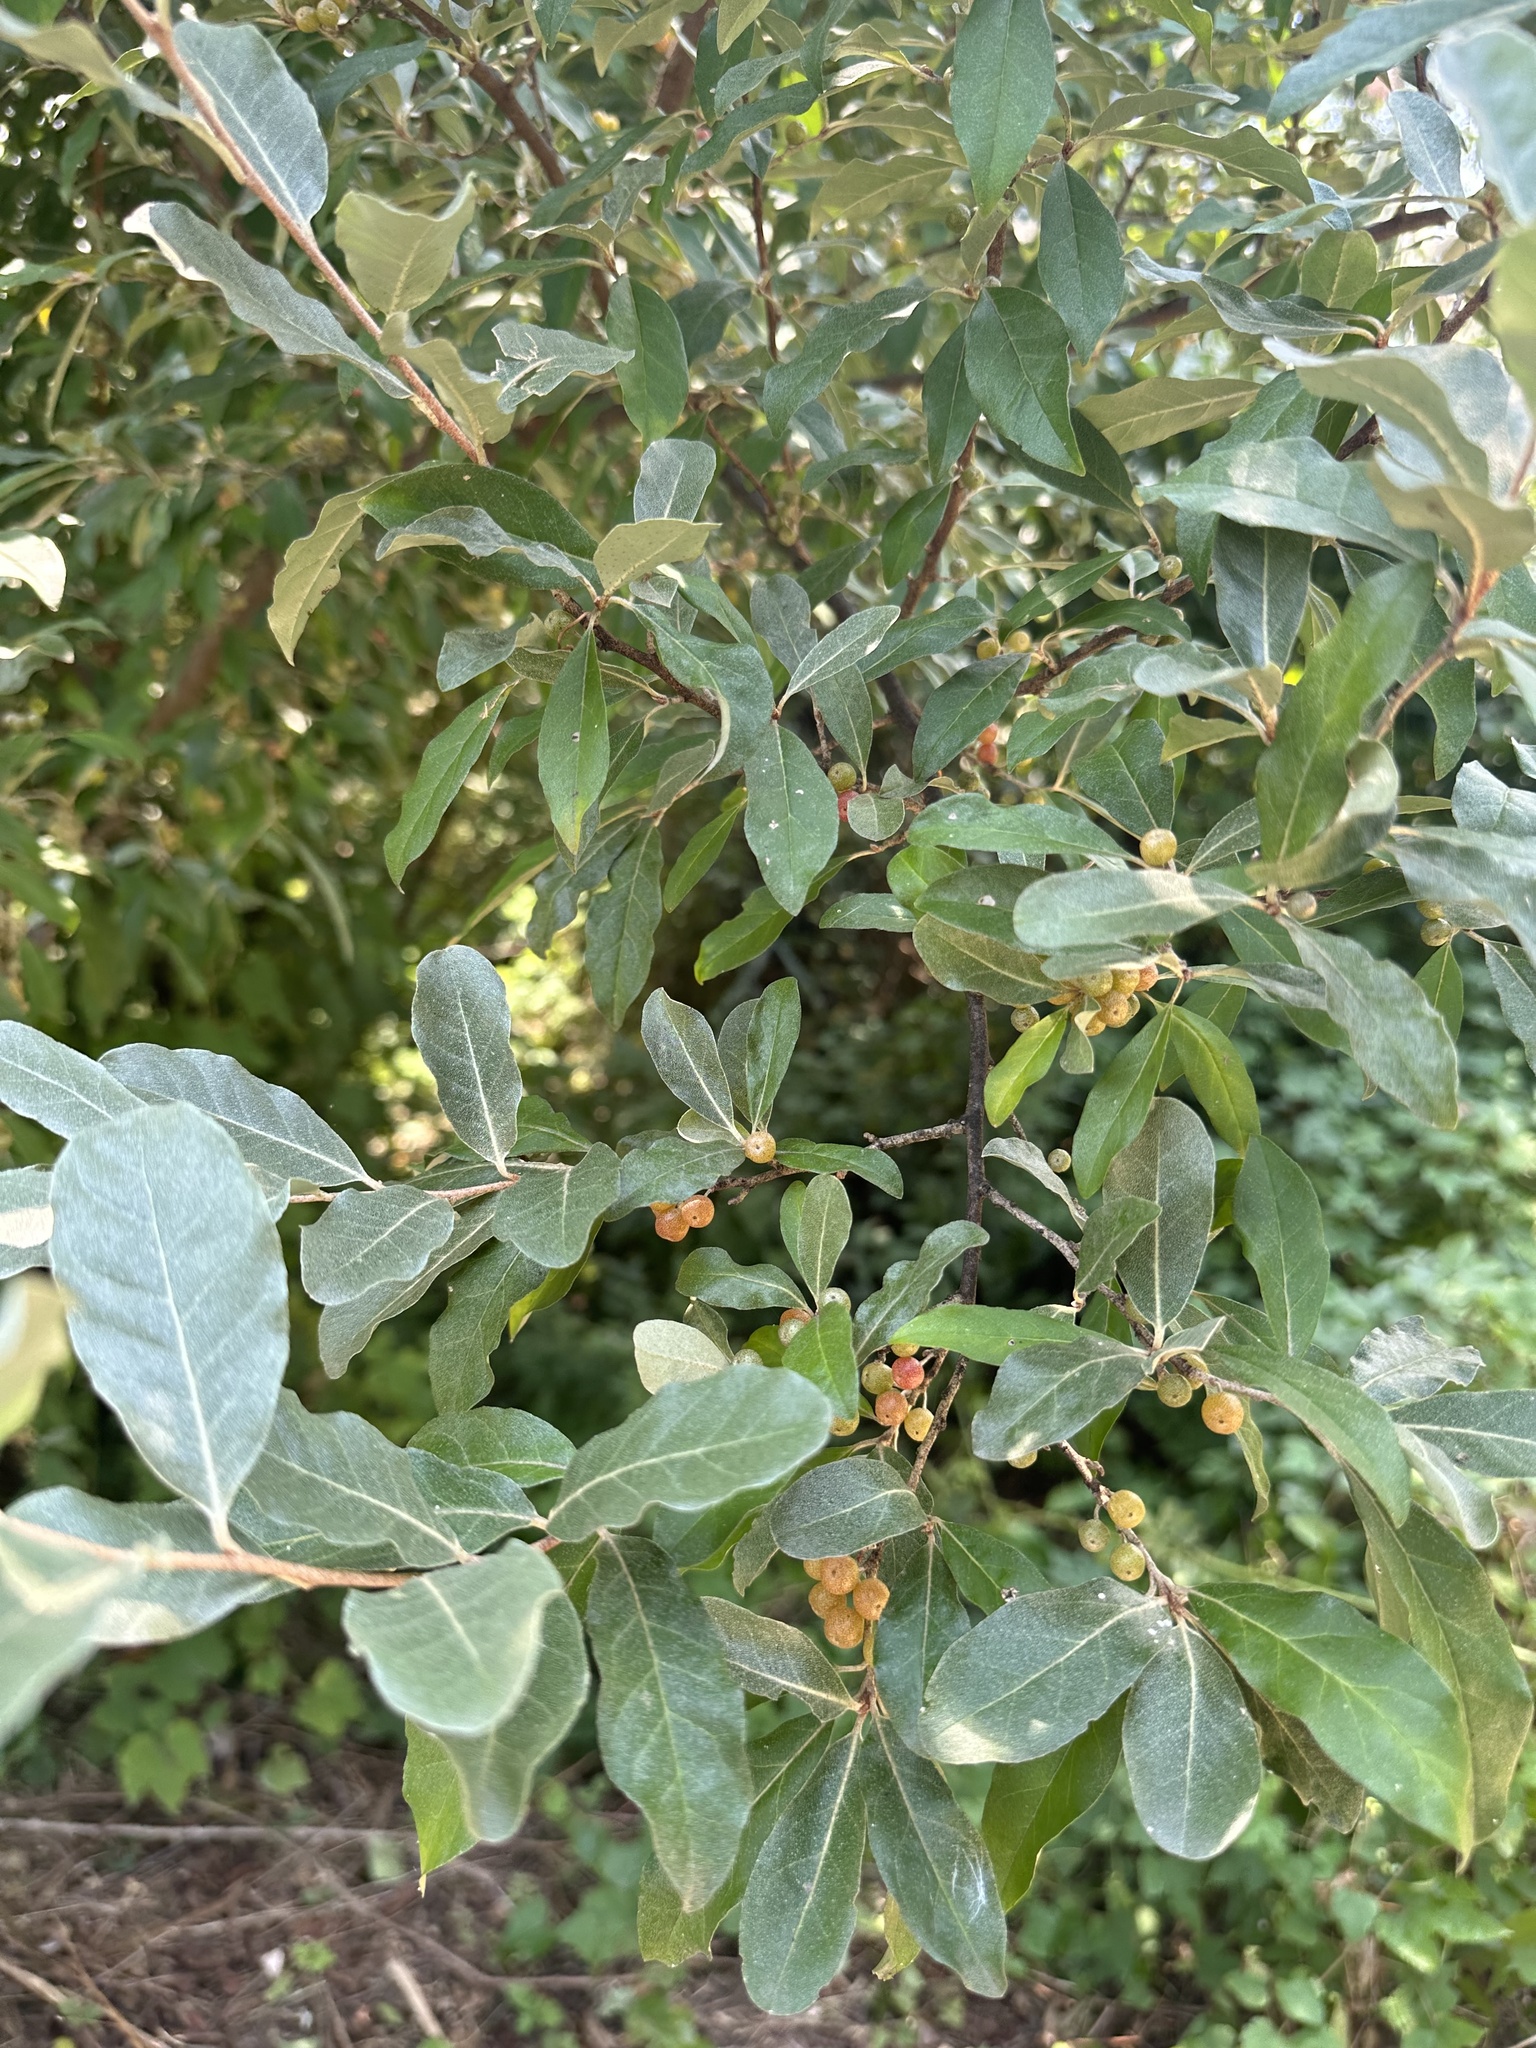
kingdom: Plantae
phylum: Tracheophyta
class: Magnoliopsida
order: Rosales
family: Elaeagnaceae
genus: Elaeagnus
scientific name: Elaeagnus umbellata
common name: Autumn olive
